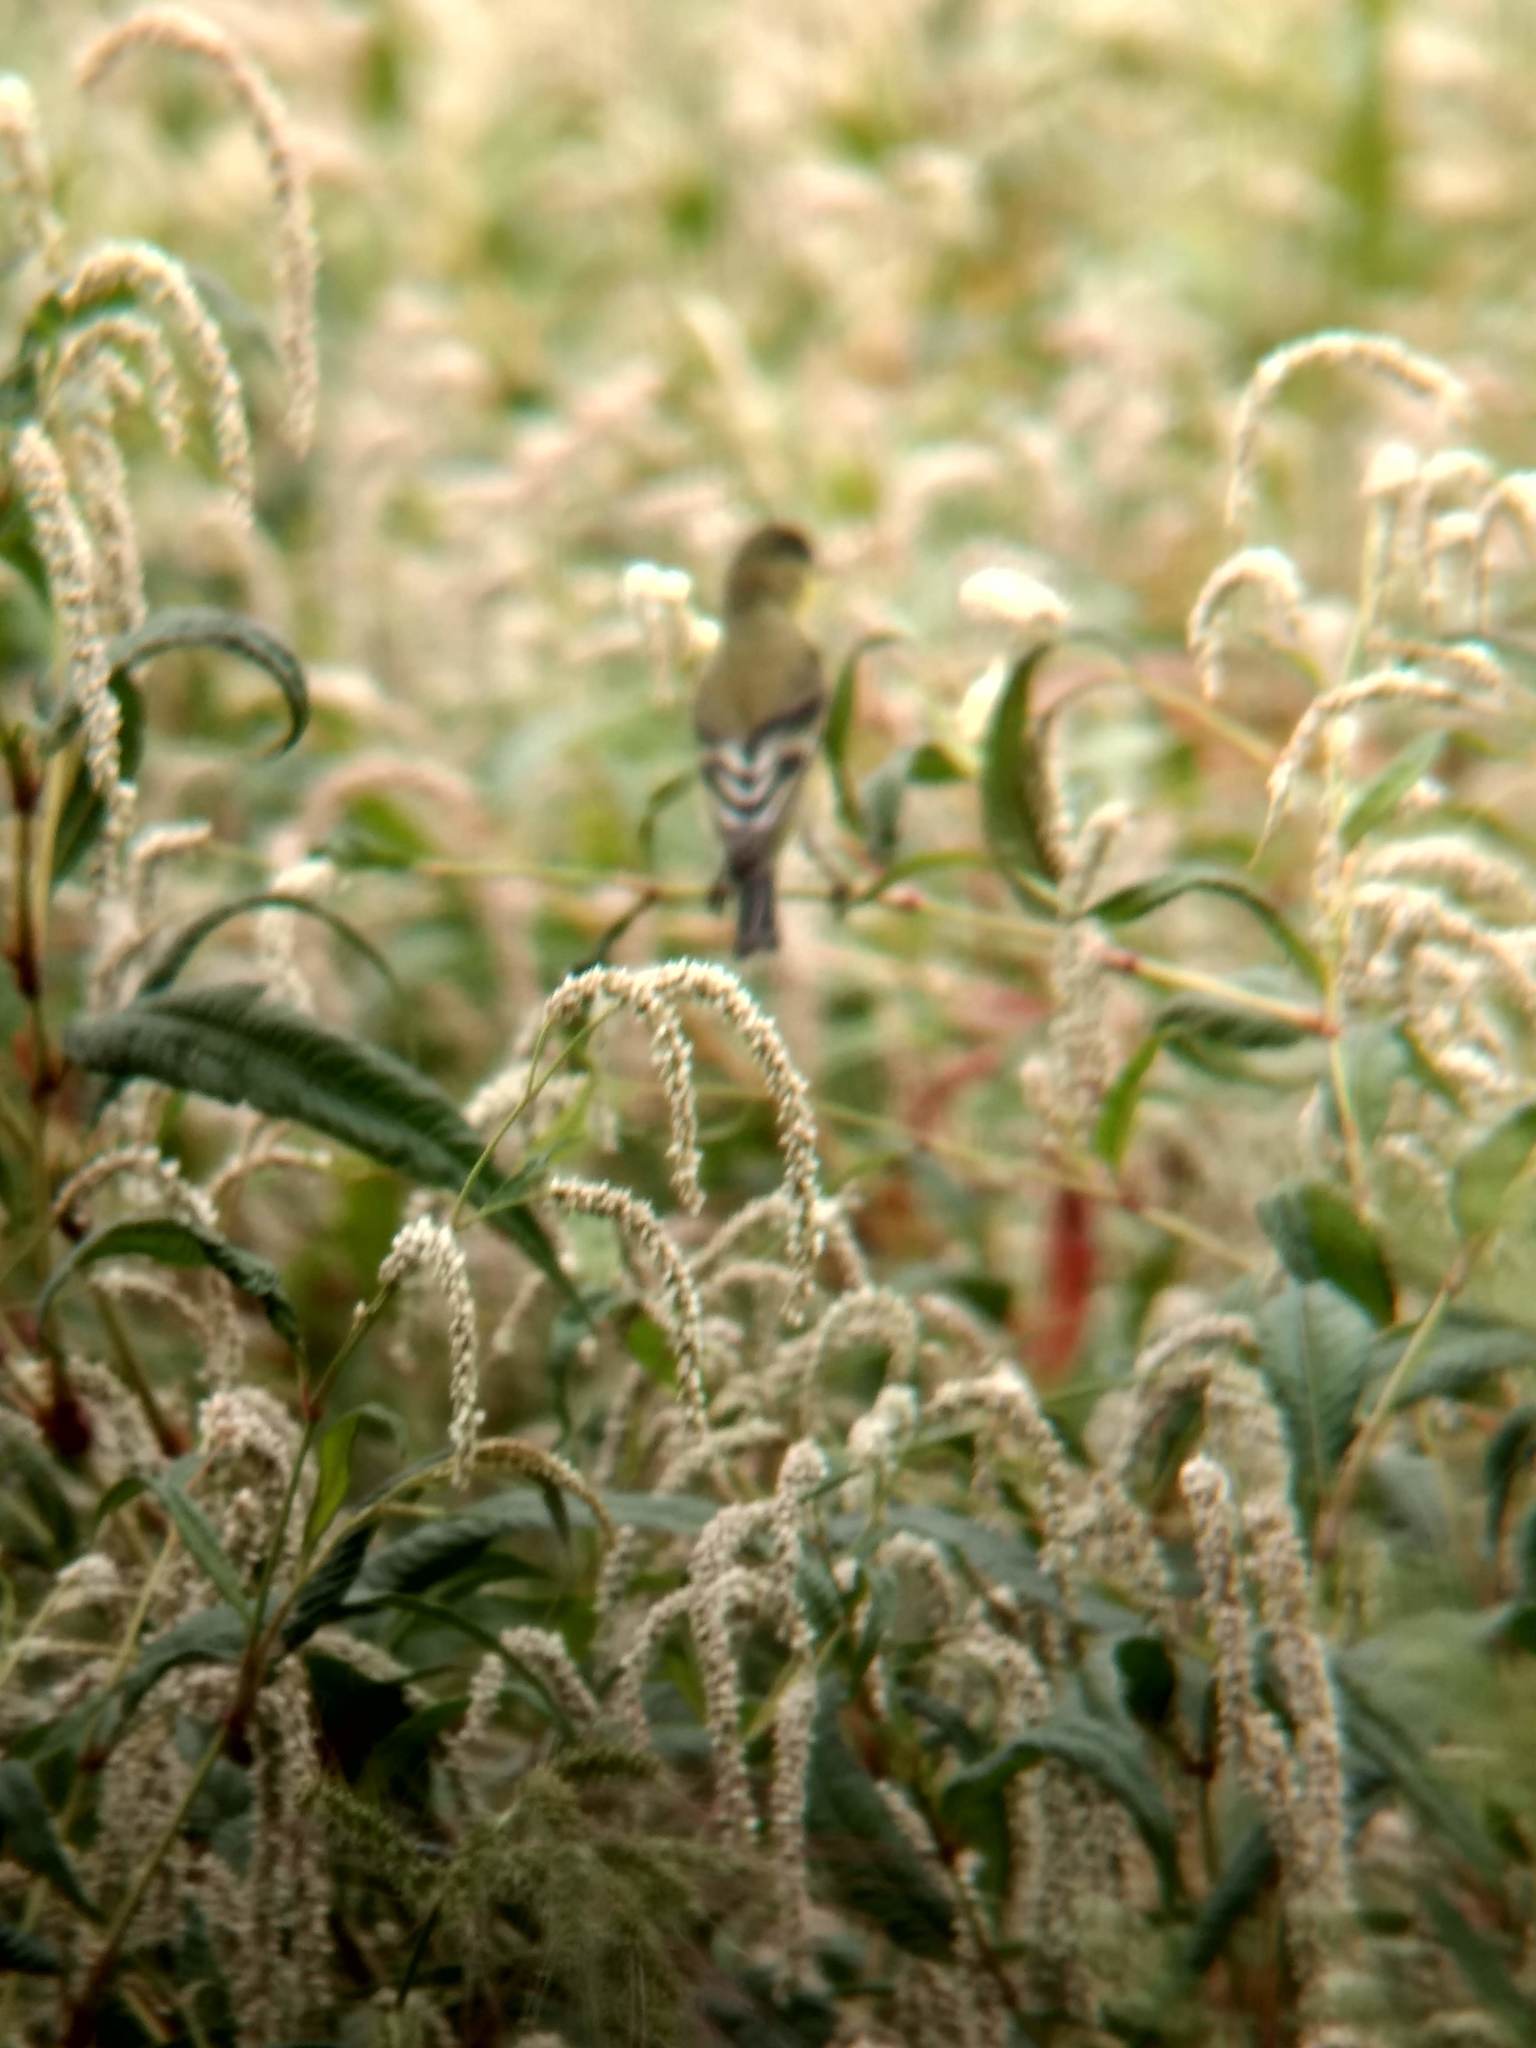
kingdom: Animalia
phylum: Chordata
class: Aves
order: Passeriformes
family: Fringillidae
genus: Spinus
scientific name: Spinus psaltria
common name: Lesser goldfinch
